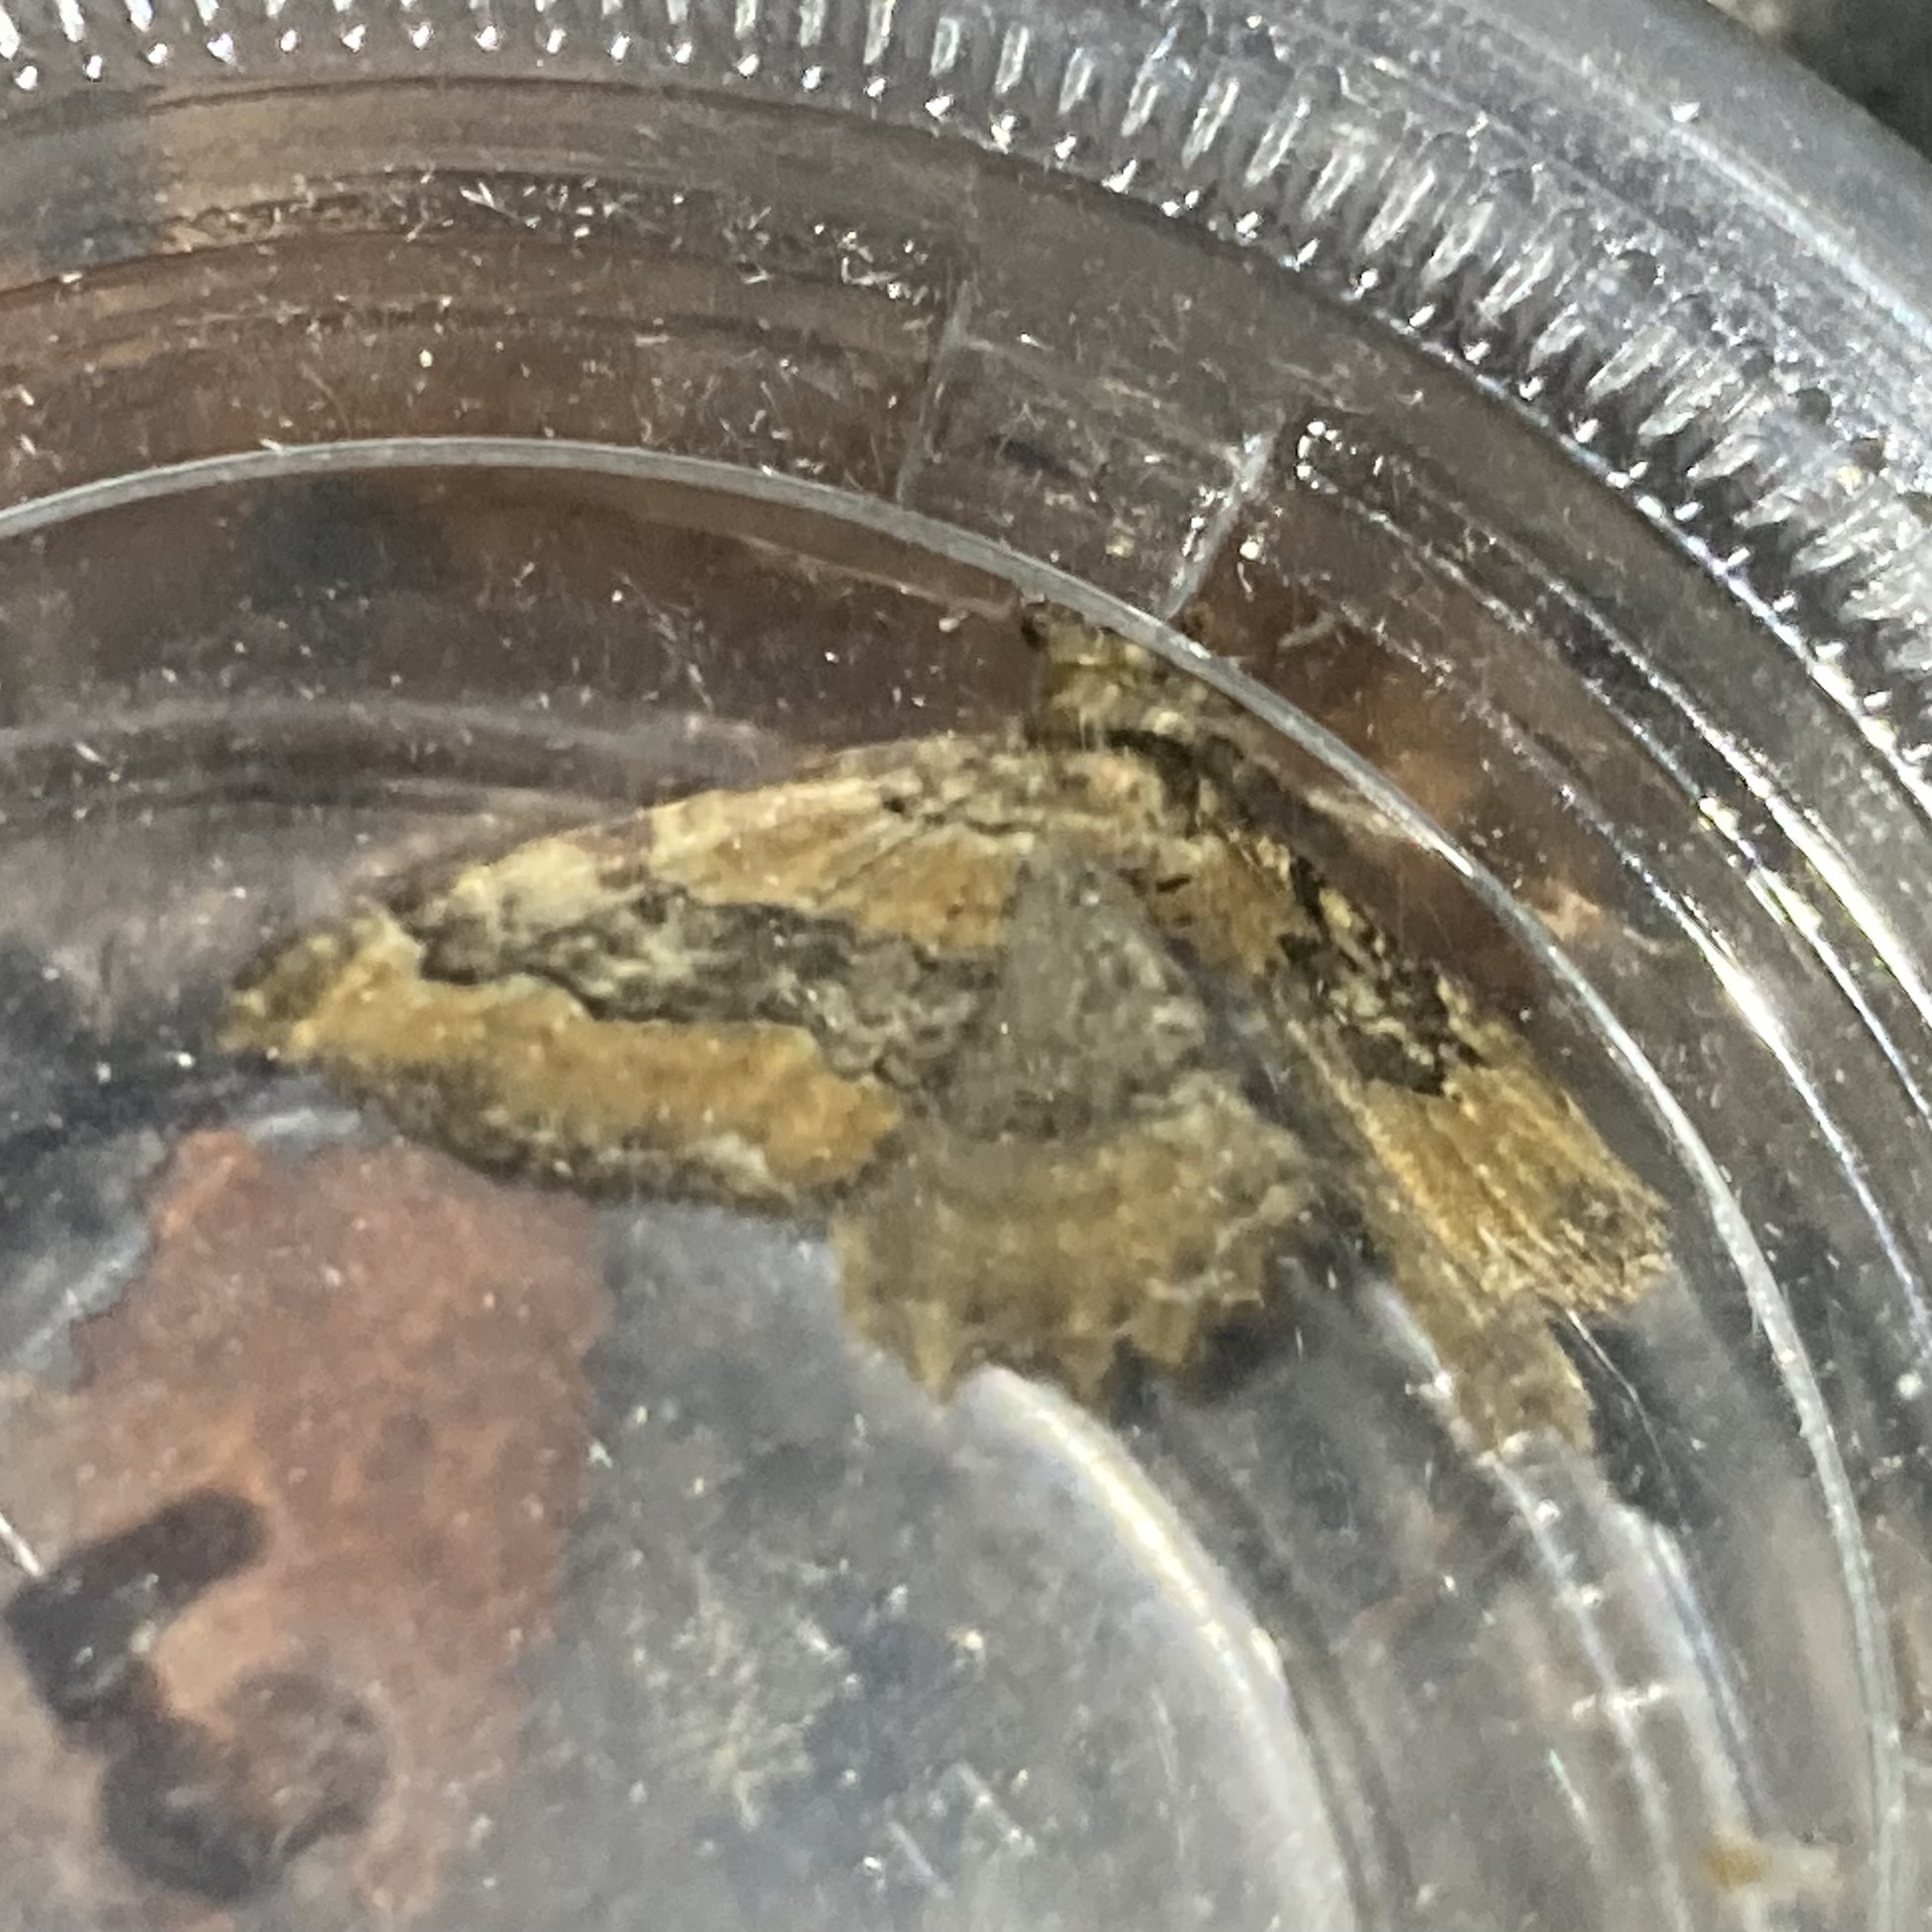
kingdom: Animalia
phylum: Arthropoda
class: Insecta
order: Lepidoptera
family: Geometridae
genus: Rheumaptera
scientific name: Rheumaptera
